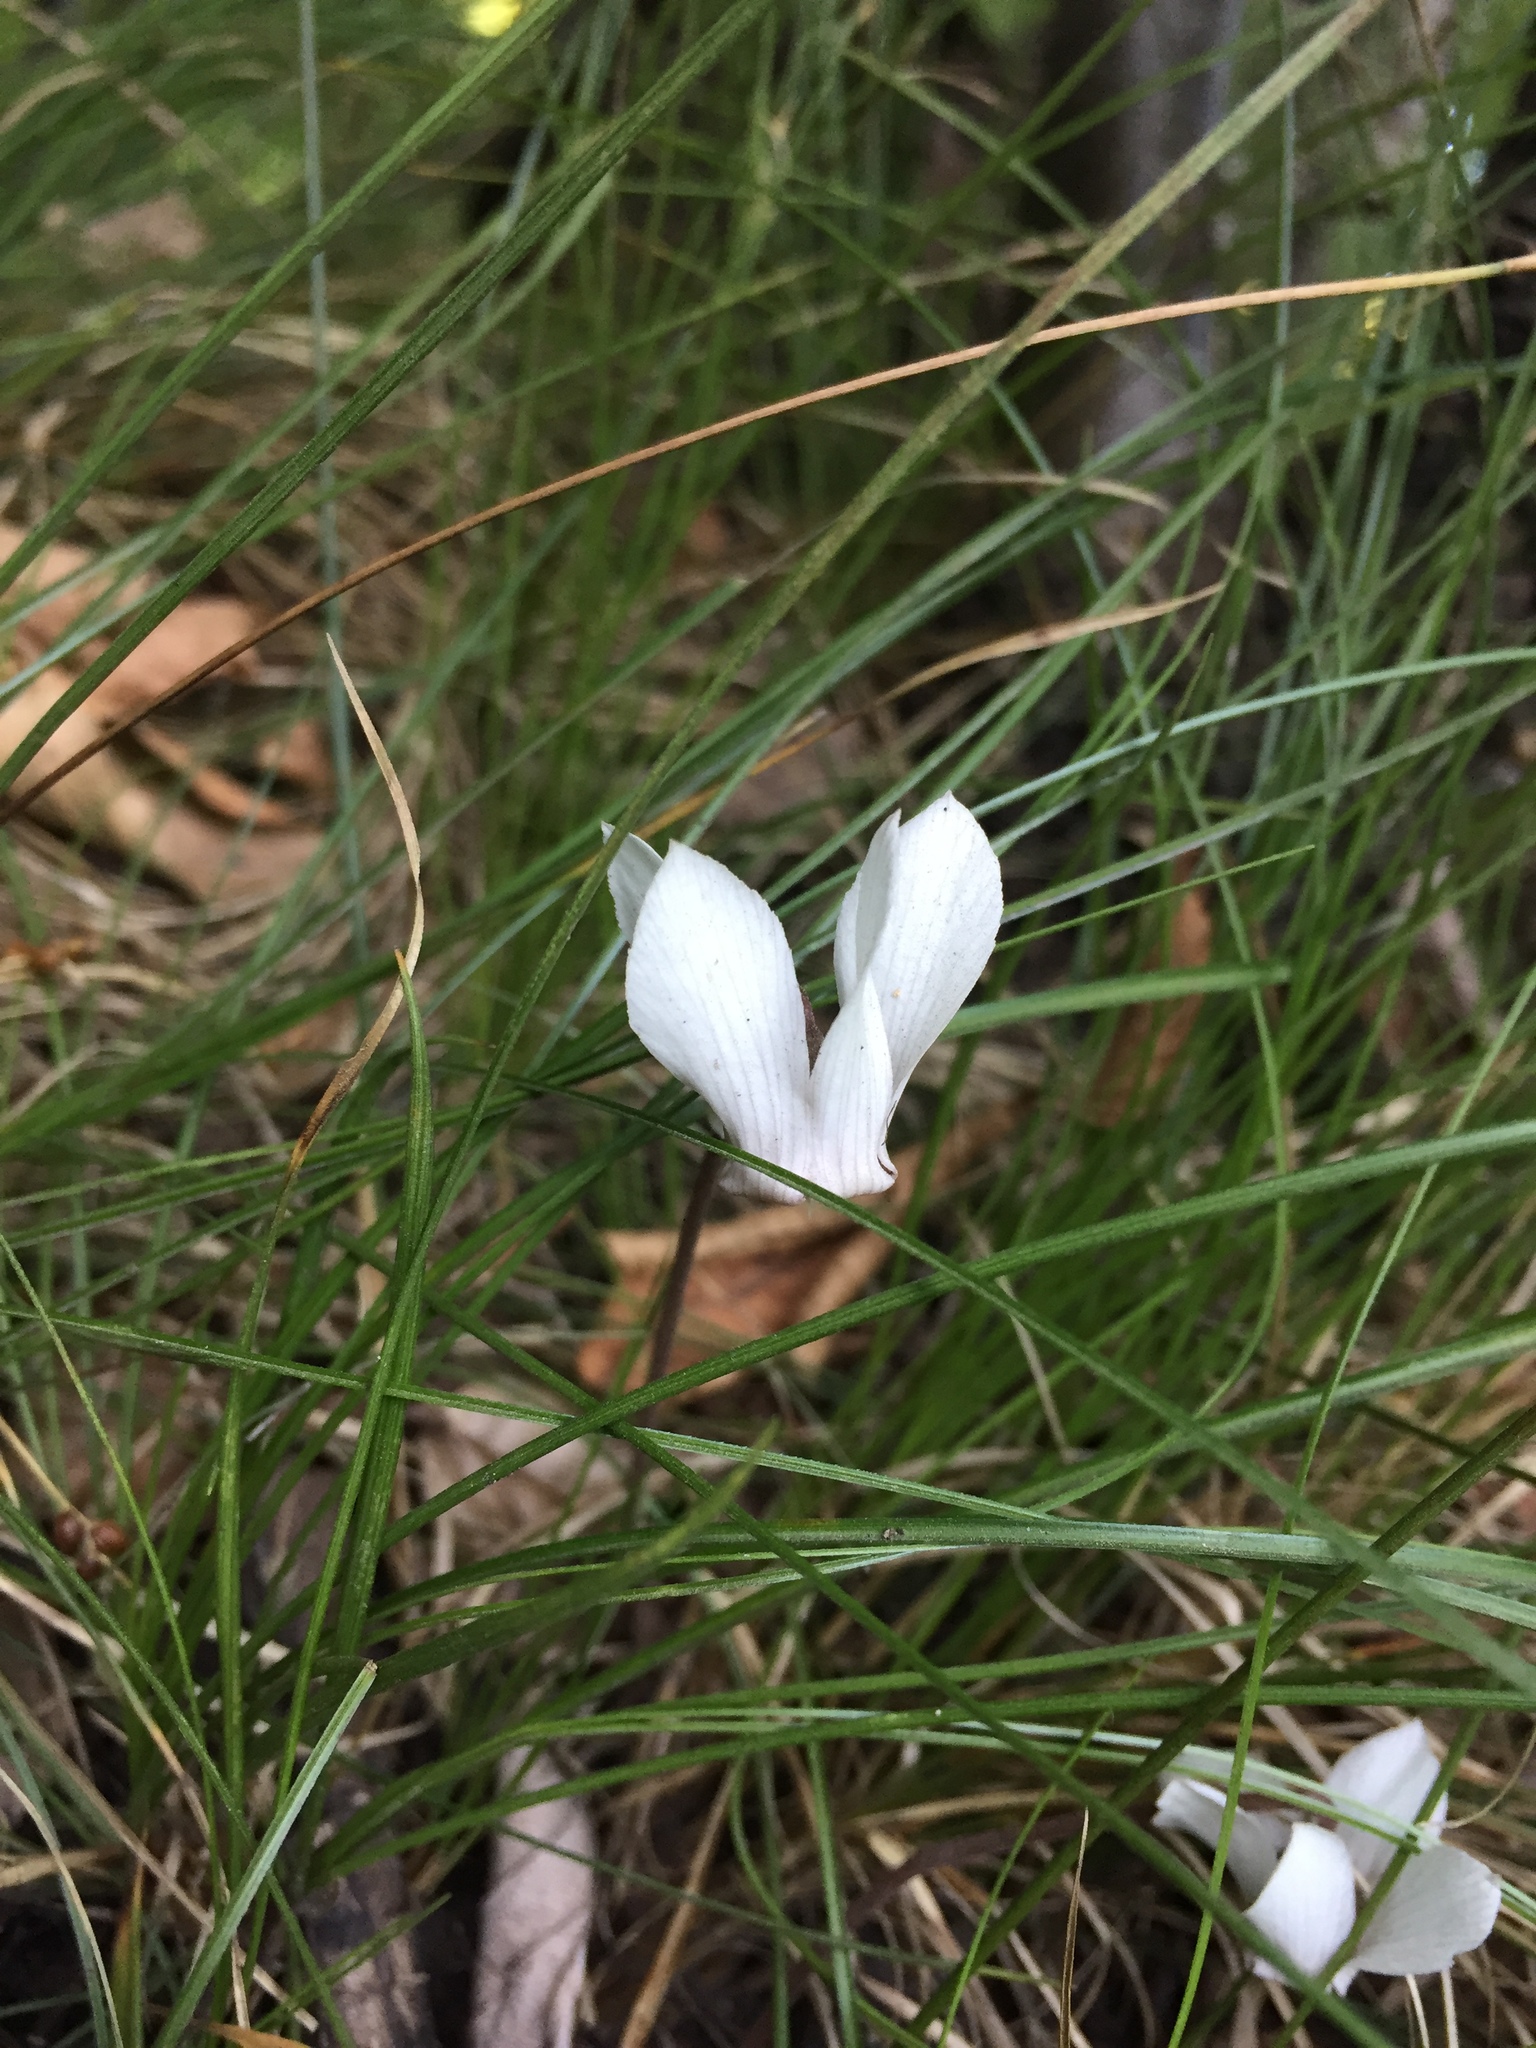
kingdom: Plantae
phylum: Tracheophyta
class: Magnoliopsida
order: Ericales
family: Primulaceae
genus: Cyclamen
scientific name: Cyclamen purpurascens
